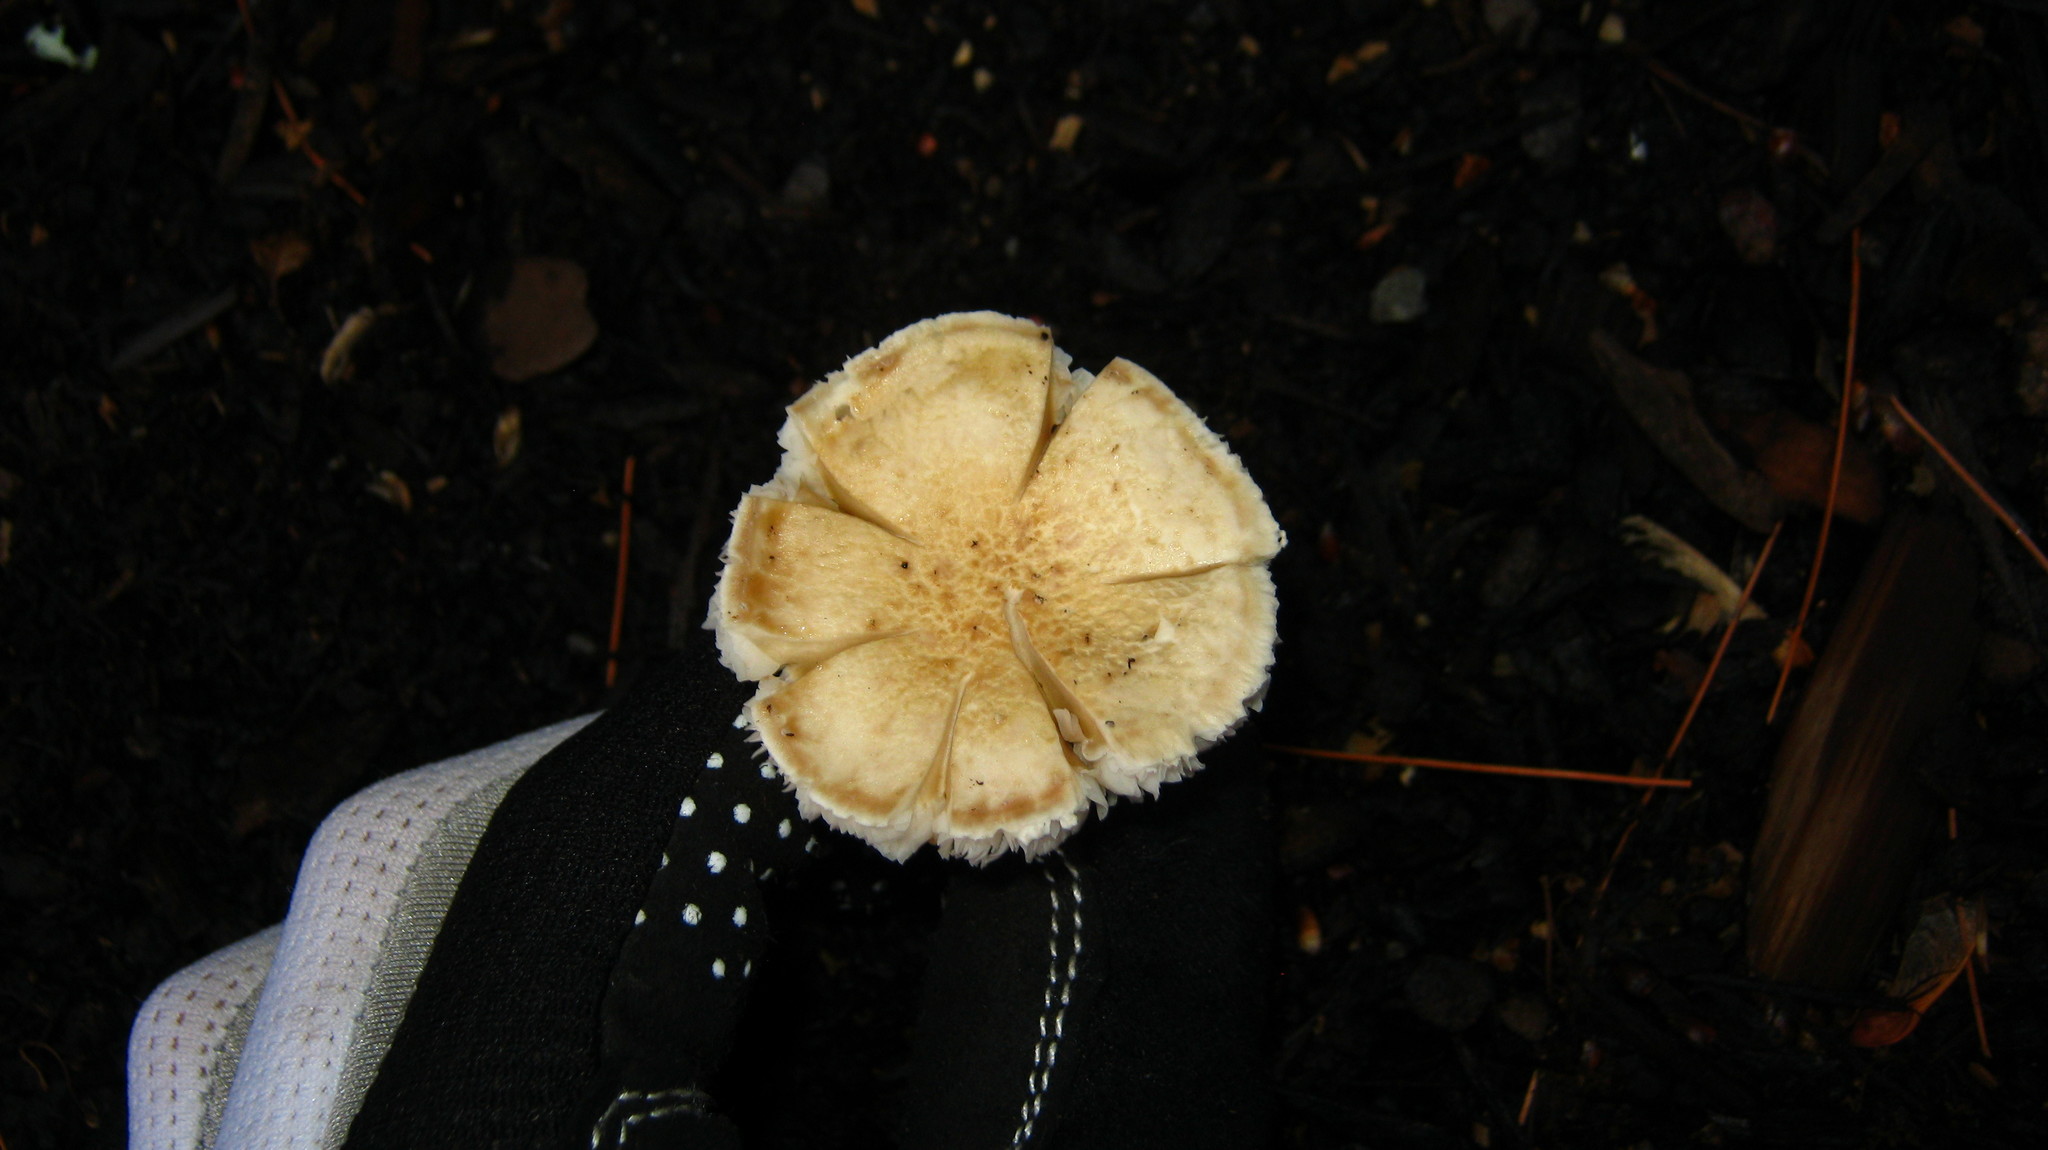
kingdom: Fungi
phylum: Basidiomycota
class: Agaricomycetes
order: Agaricales
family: Strophariaceae
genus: Stropharia
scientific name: Stropharia rugosoannulata
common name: Wine roundhead
